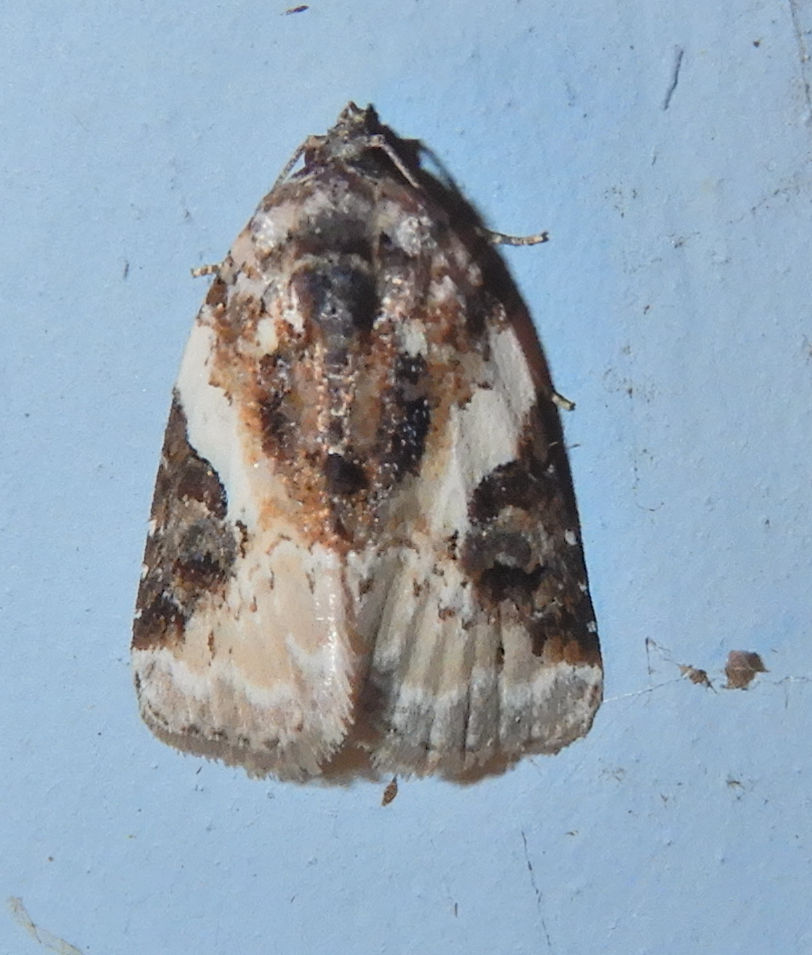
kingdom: Animalia
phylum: Arthropoda
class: Insecta
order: Lepidoptera
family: Noctuidae
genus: Pseudeustrotia
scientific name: Pseudeustrotia carneola
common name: Pink-barred lithacodia moth
